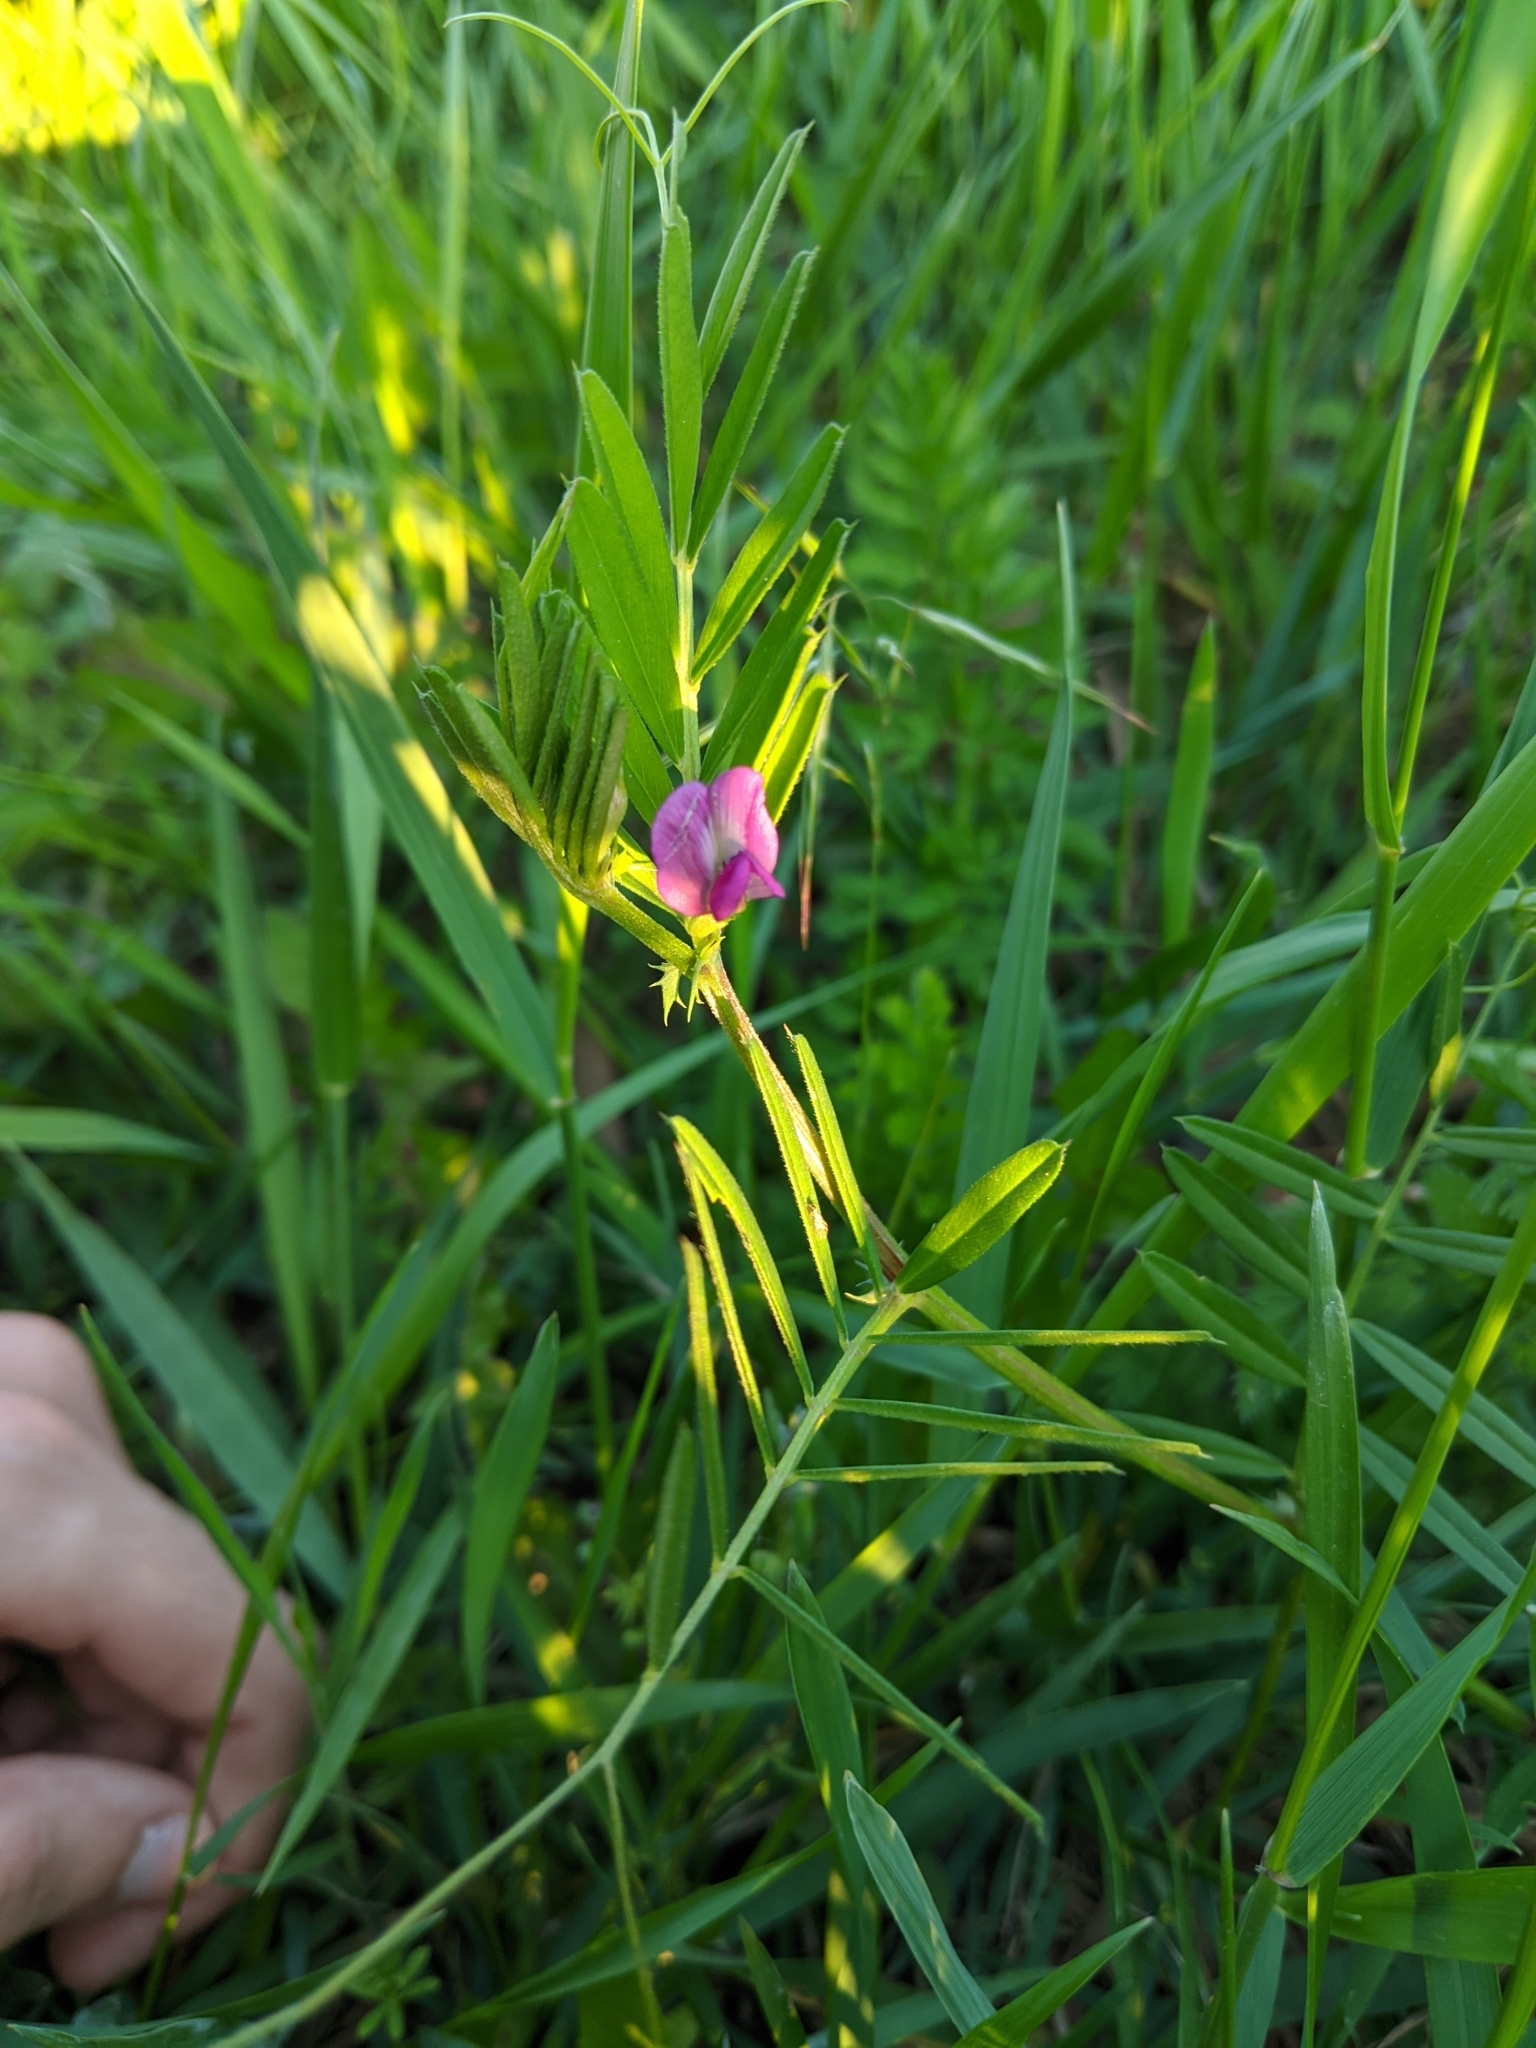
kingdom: Plantae
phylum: Tracheophyta
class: Magnoliopsida
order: Fabales
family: Fabaceae
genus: Vicia
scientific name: Vicia sativa
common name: Garden vetch
